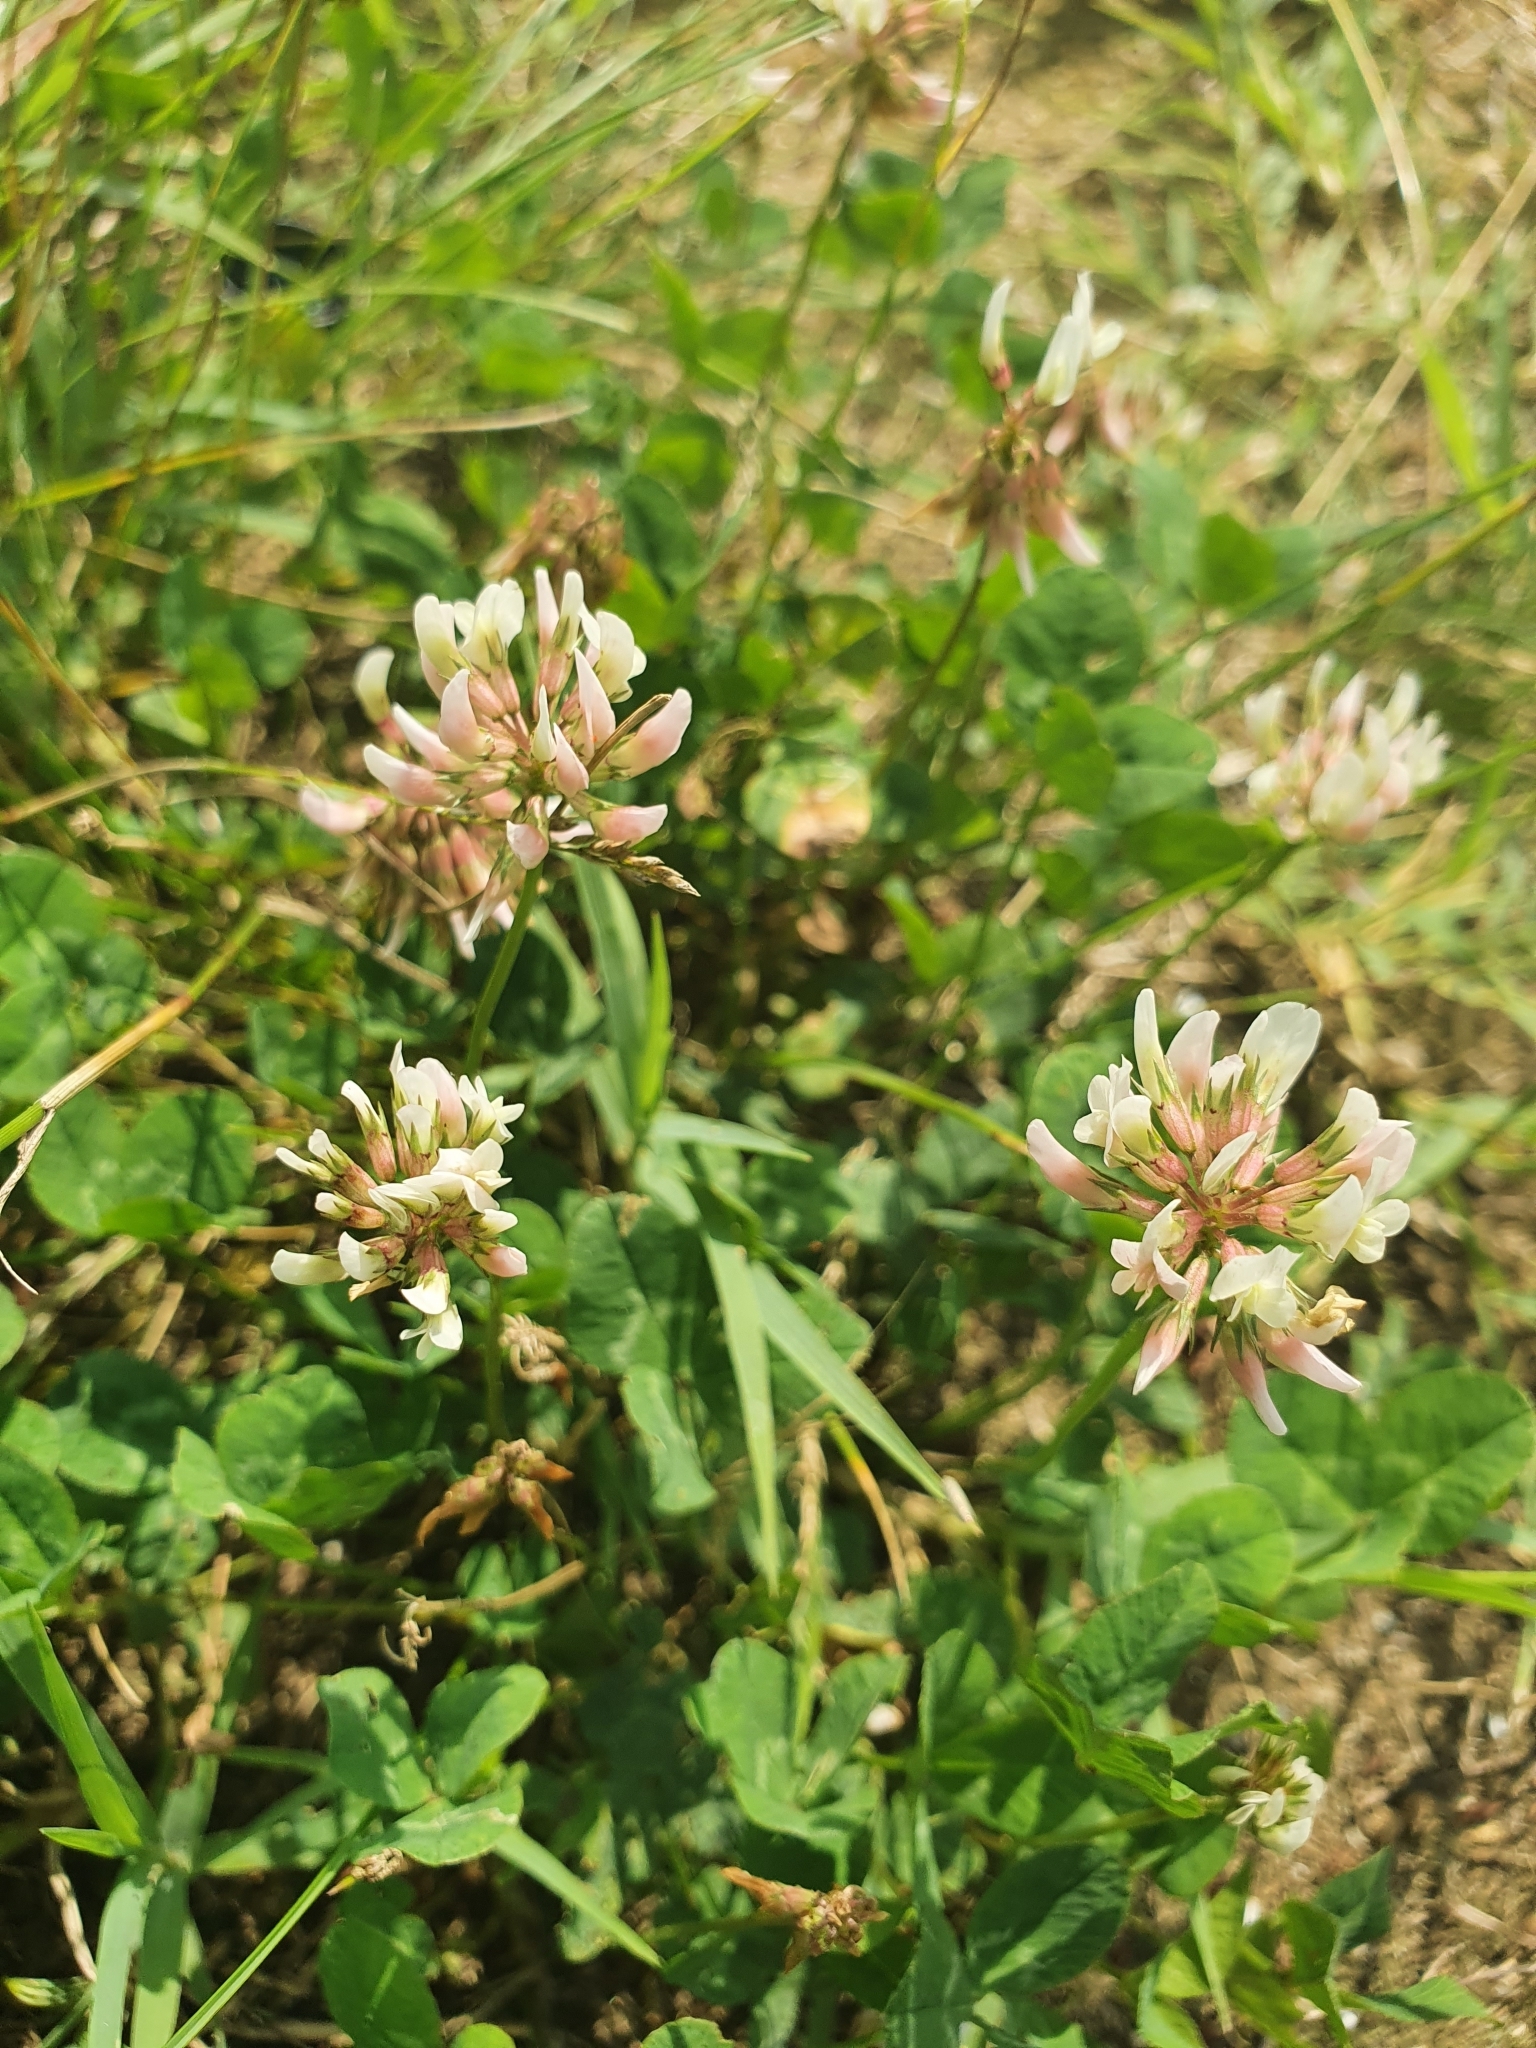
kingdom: Plantae
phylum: Tracheophyta
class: Magnoliopsida
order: Fabales
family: Fabaceae
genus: Trifolium
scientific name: Trifolium repens
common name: White clover
